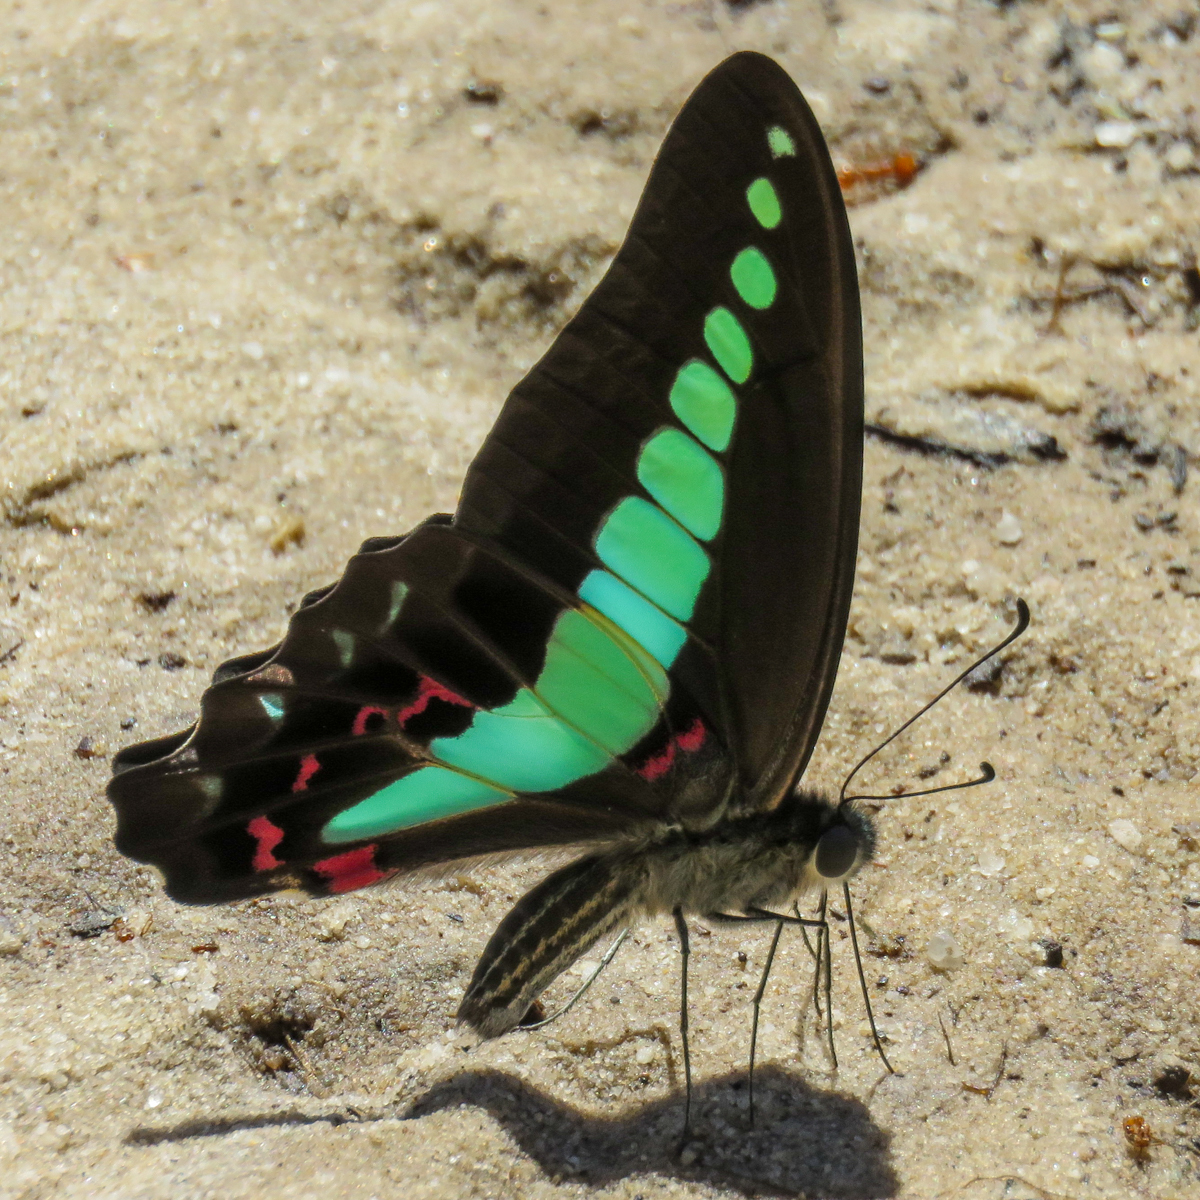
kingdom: Fungi
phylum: Ascomycota
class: Sordariomycetes
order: Microascales
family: Microascaceae
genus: Graphium
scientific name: Graphium sarpedon
